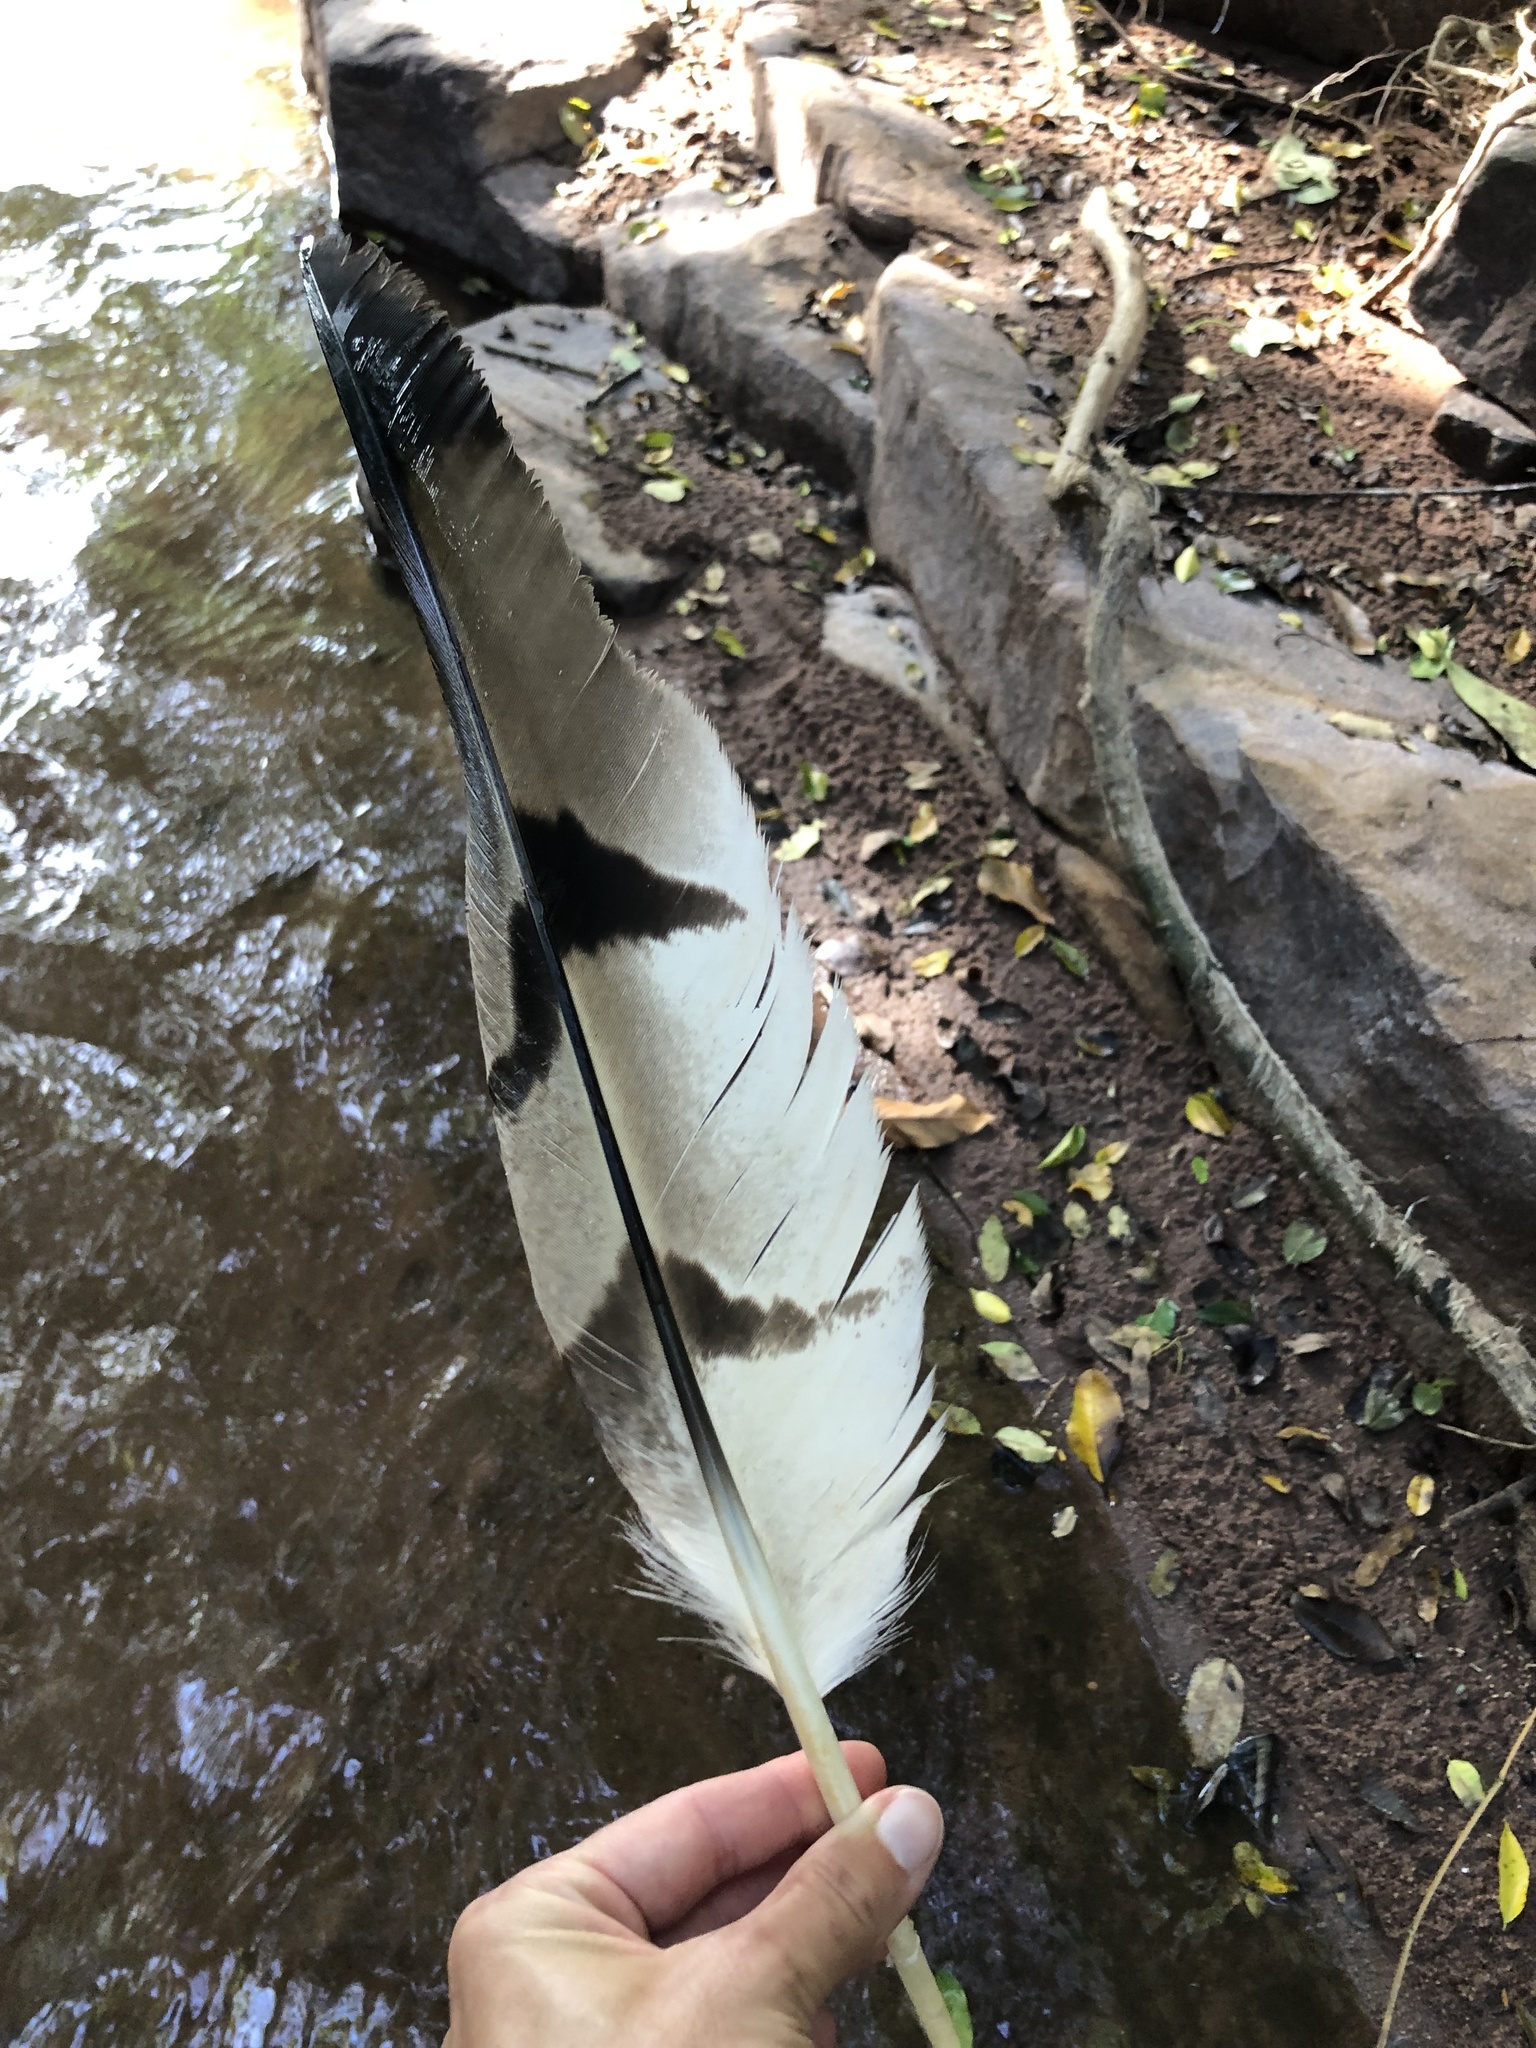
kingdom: Animalia
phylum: Chordata
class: Aves
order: Accipitriformes
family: Accipitridae
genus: Stephanoaetus
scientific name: Stephanoaetus coronatus
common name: Crowned eagle
